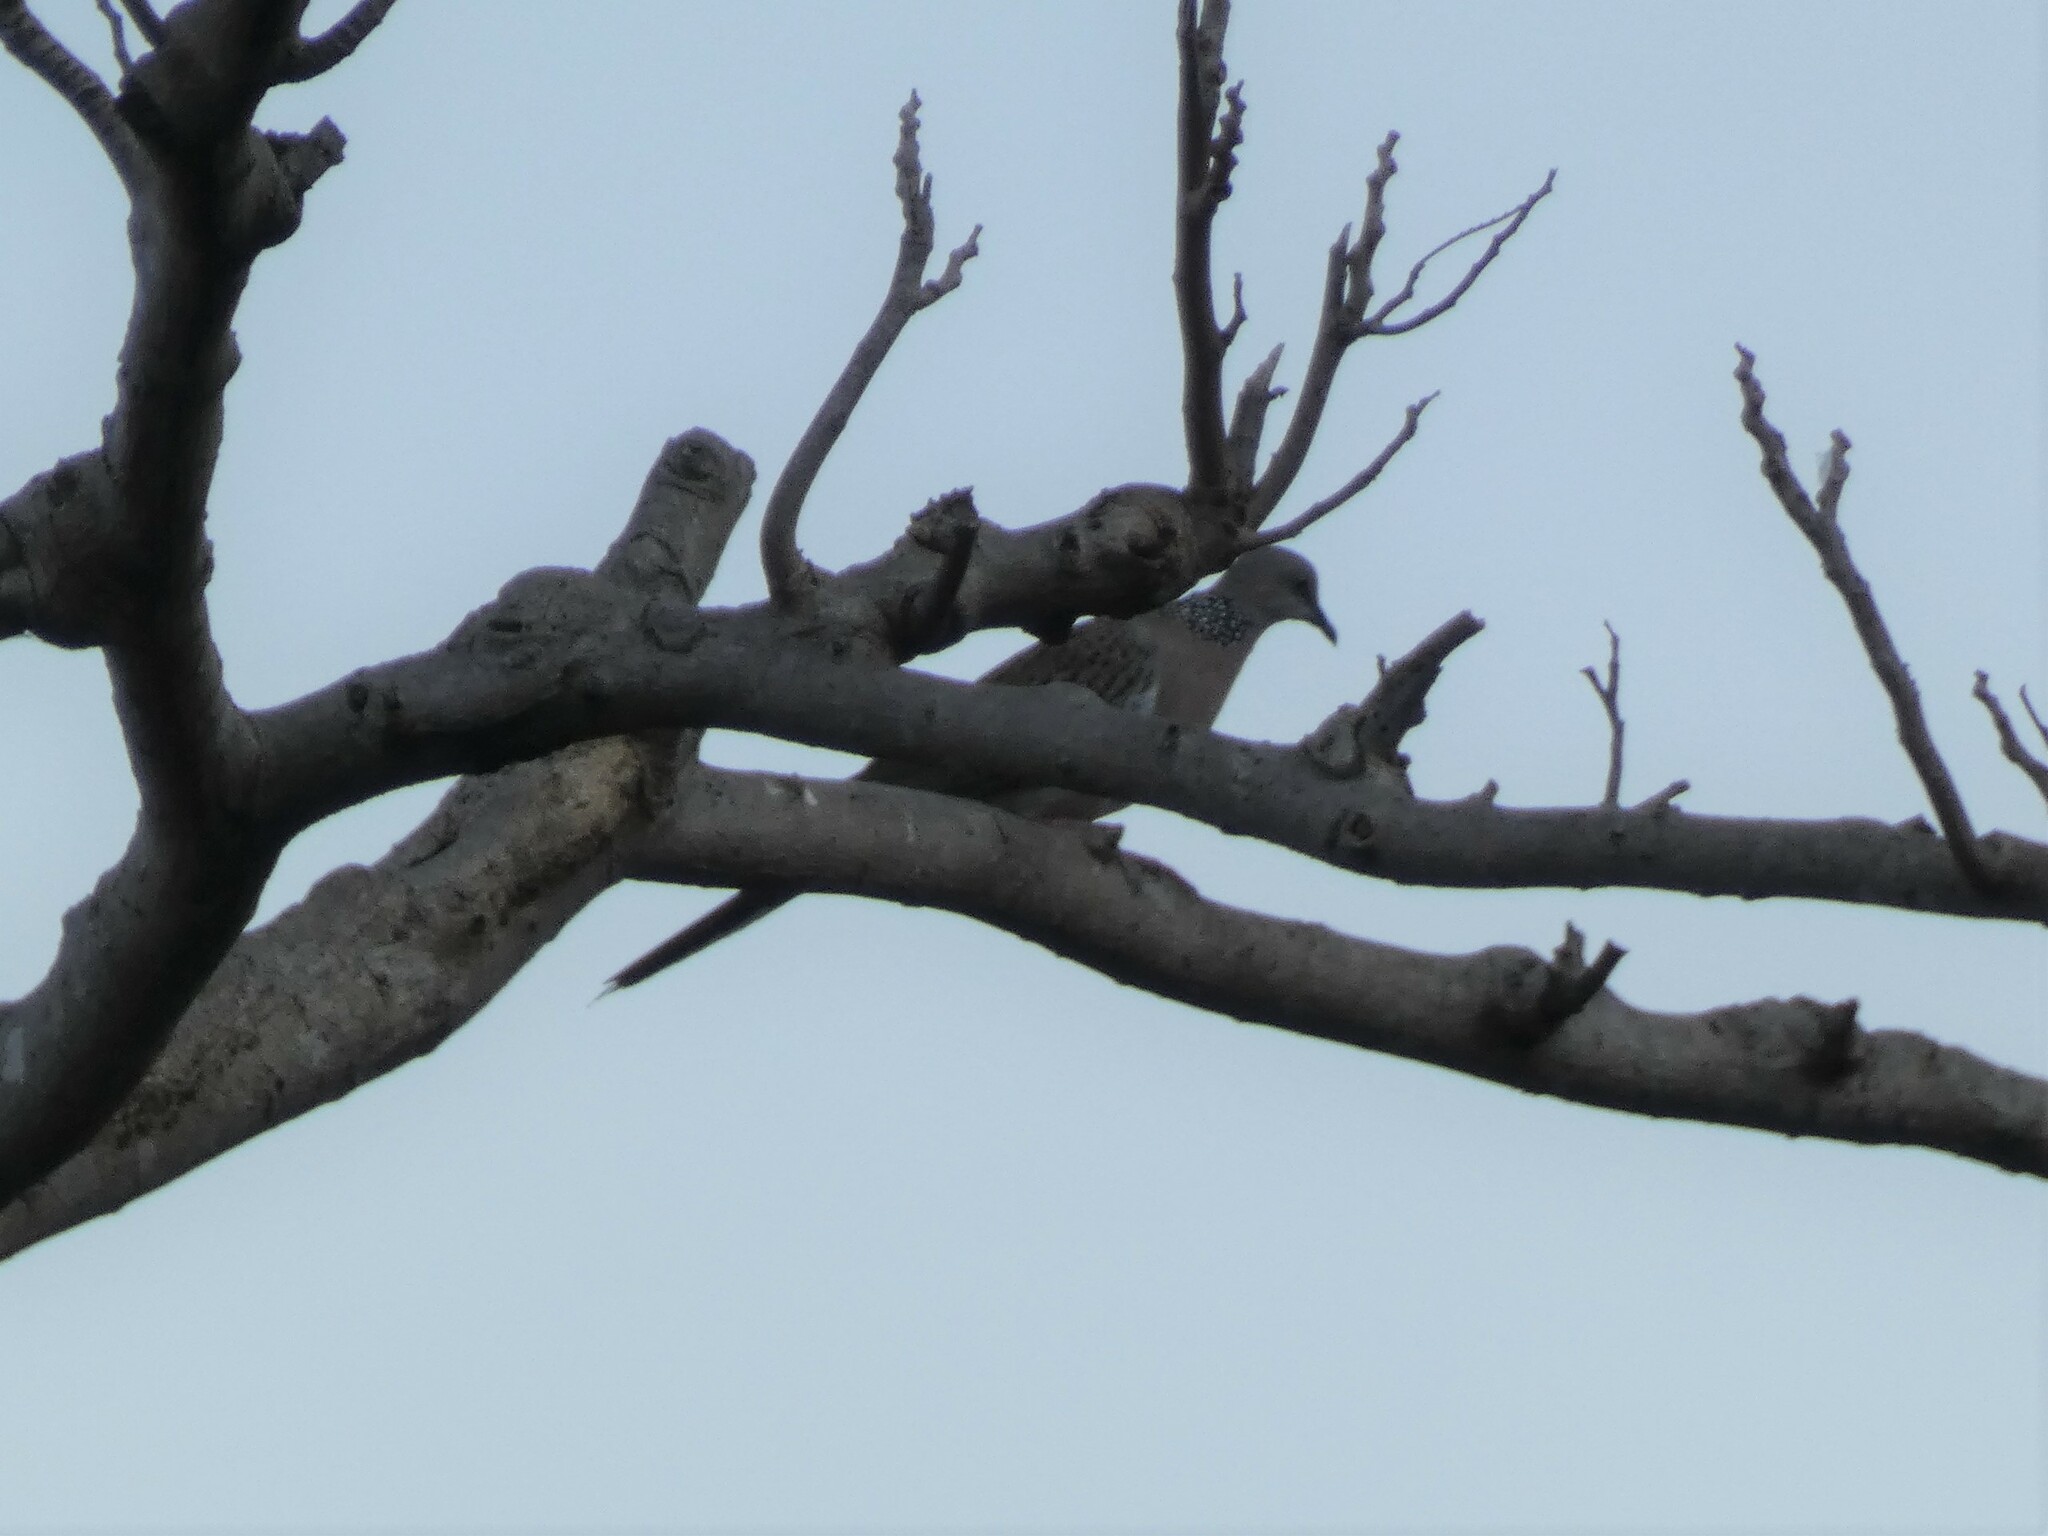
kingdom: Animalia
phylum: Chordata
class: Aves
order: Columbiformes
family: Columbidae
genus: Spilopelia
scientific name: Spilopelia chinensis
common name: Spotted dove
